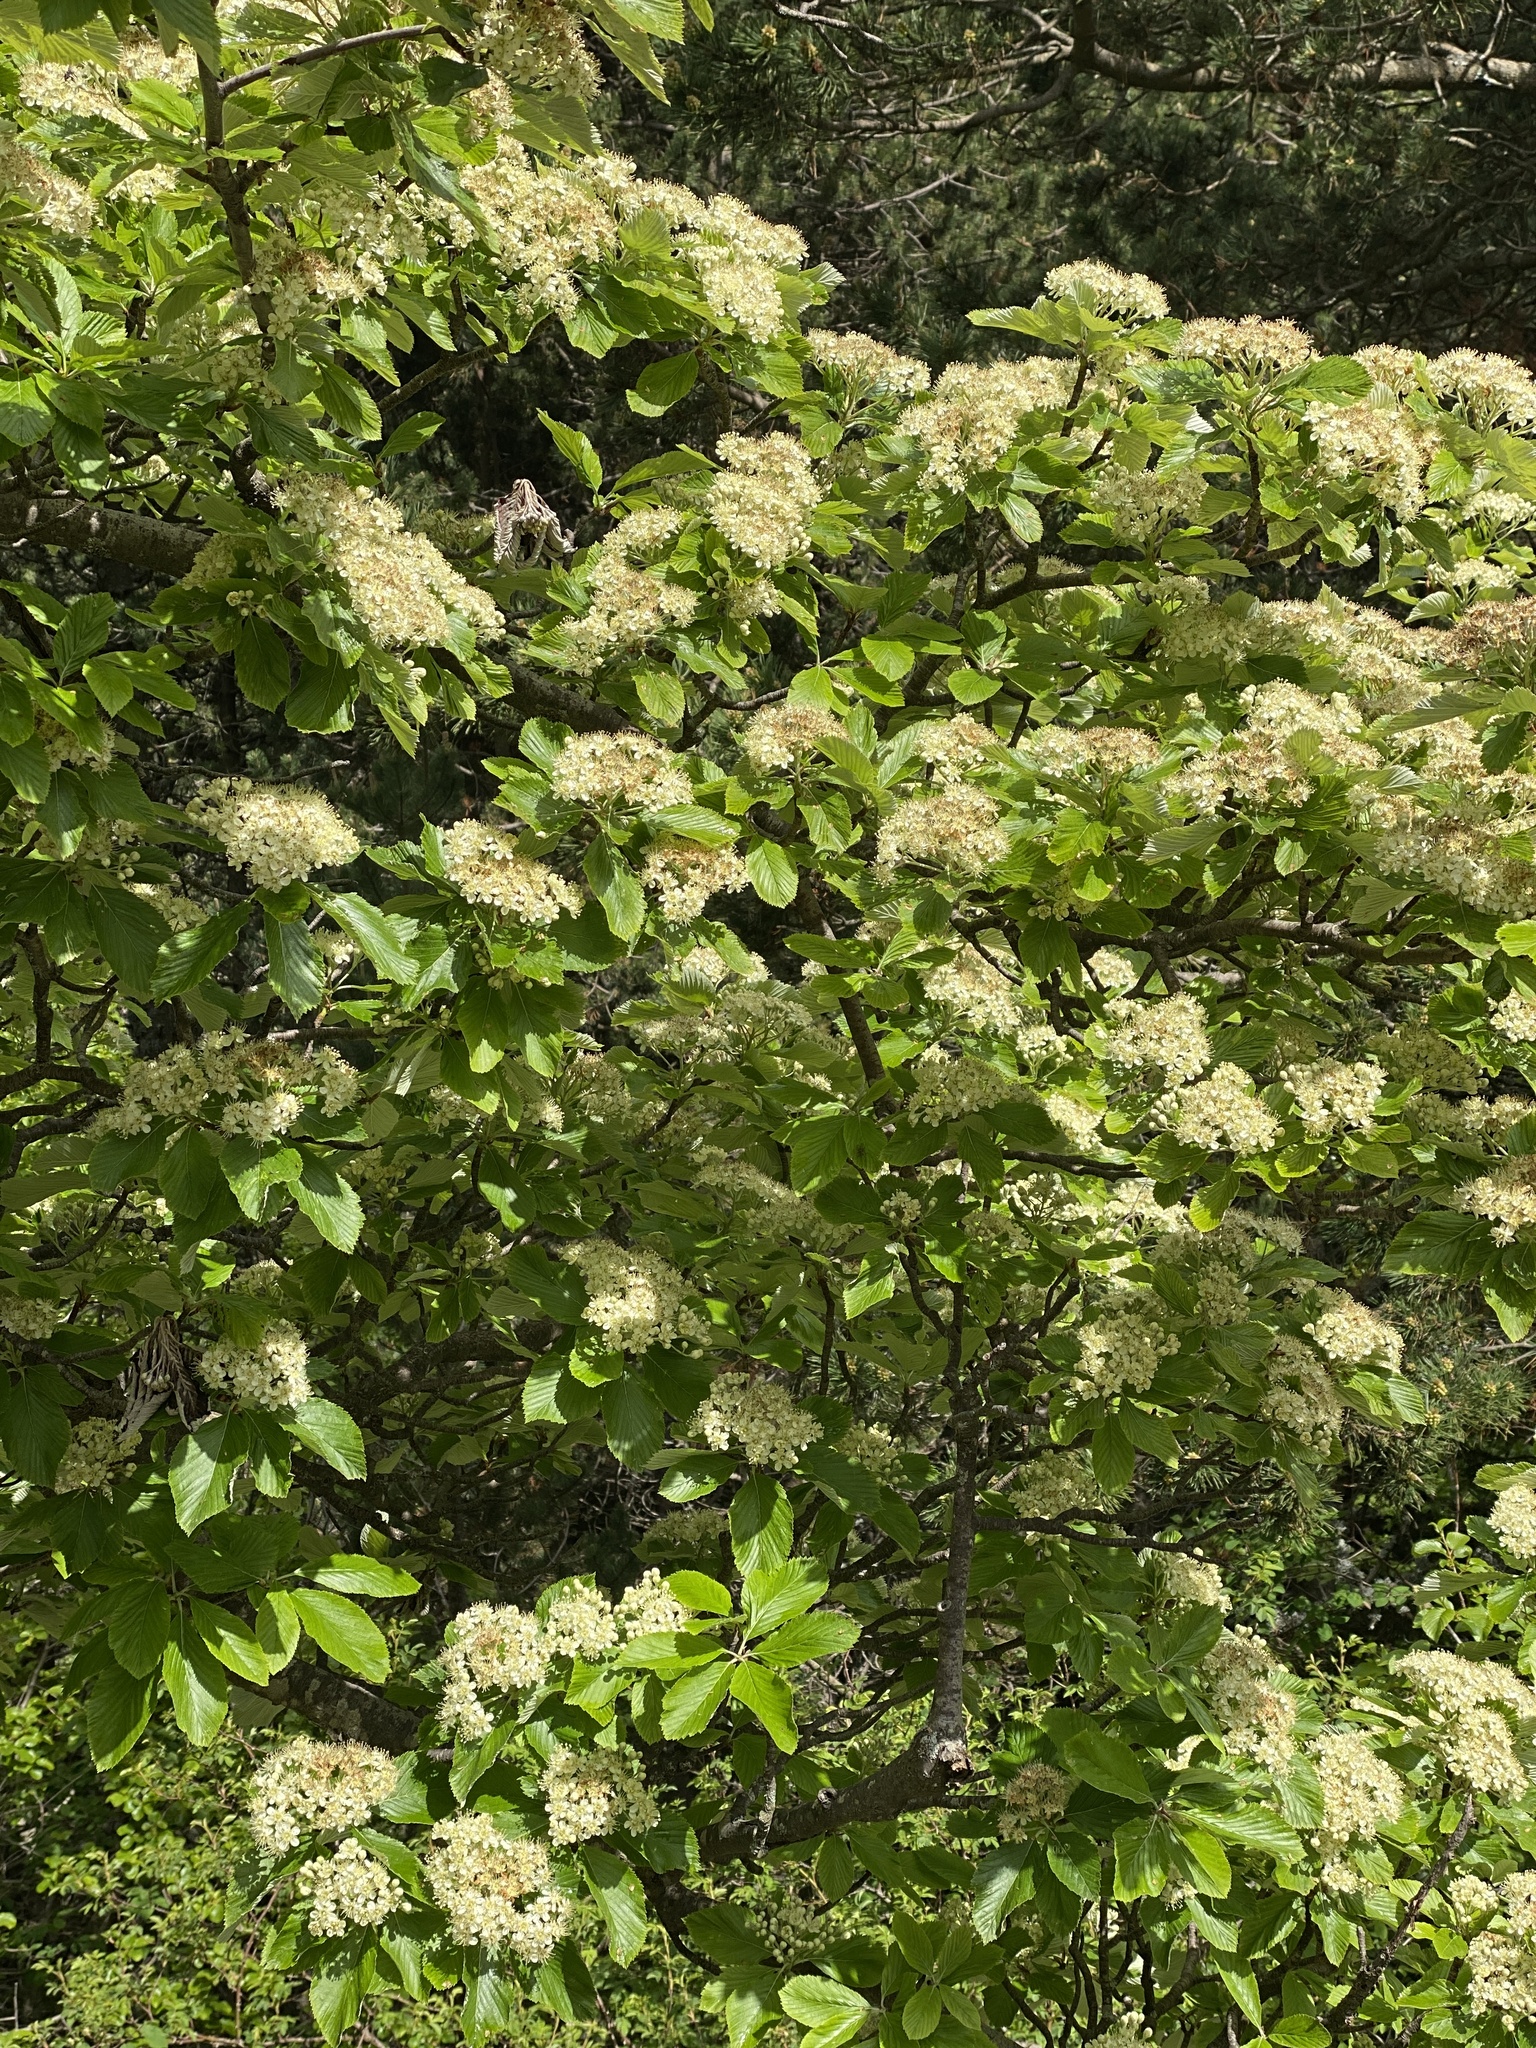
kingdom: Plantae
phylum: Tracheophyta
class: Magnoliopsida
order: Rosales
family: Rosaceae
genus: Aria
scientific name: Aria edulis
